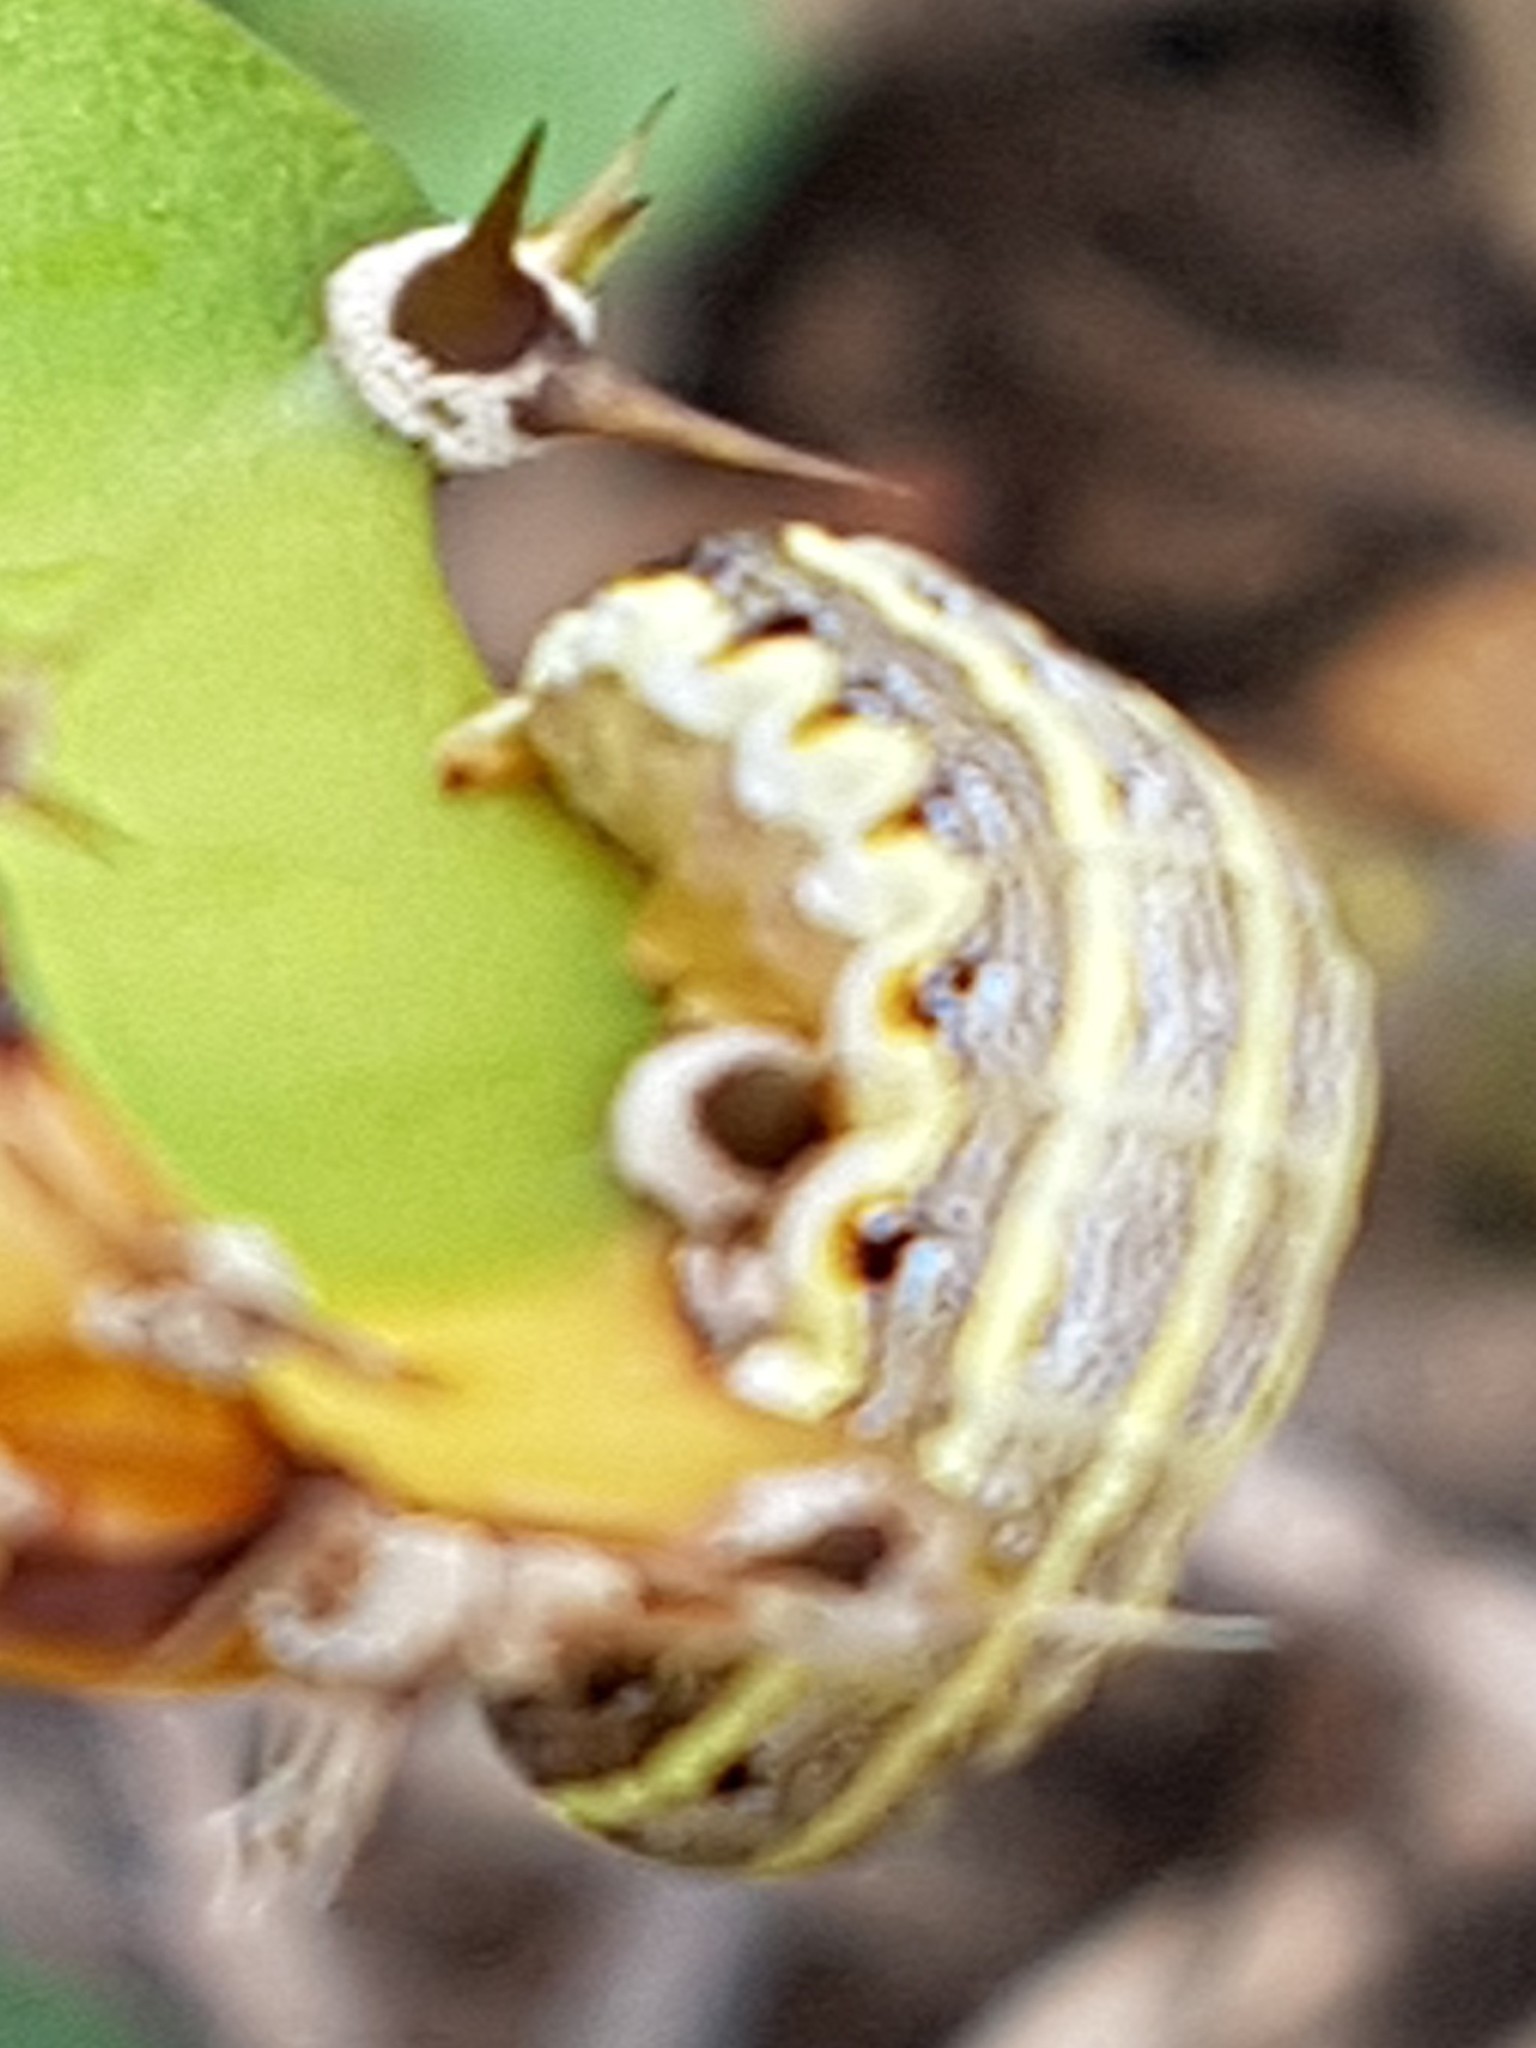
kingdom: Animalia
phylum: Arthropoda
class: Insecta
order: Lepidoptera
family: Noctuidae
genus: Spodoptera
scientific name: Spodoptera litura
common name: Asian cotton leafworm
